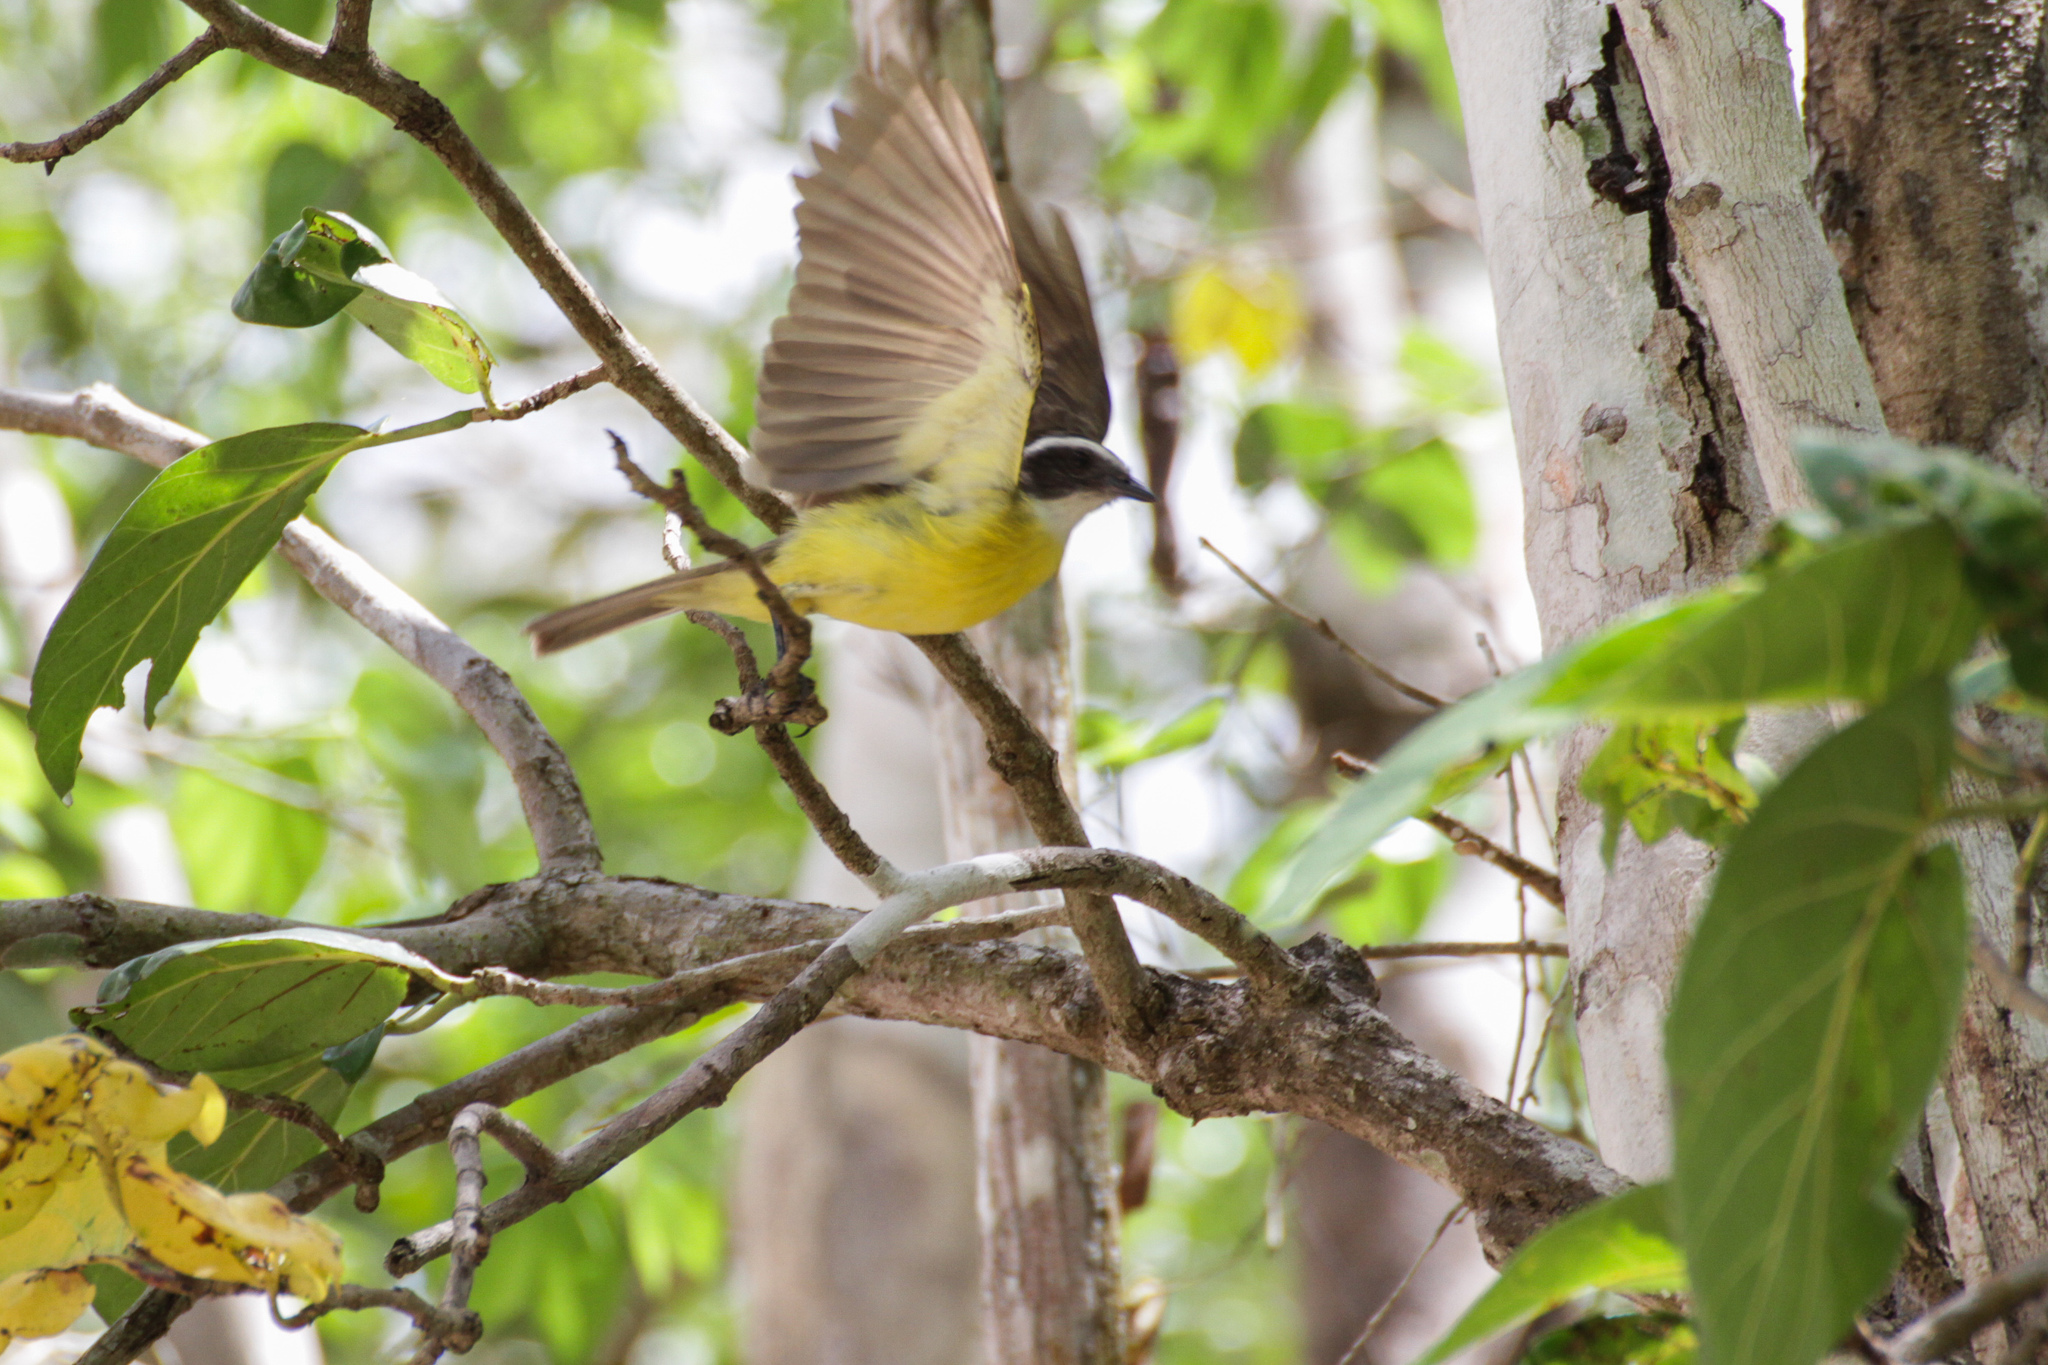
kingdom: Animalia
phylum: Chordata
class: Aves
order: Passeriformes
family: Tyrannidae
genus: Myiozetetes
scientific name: Myiozetetes similis
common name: Social flycatcher
